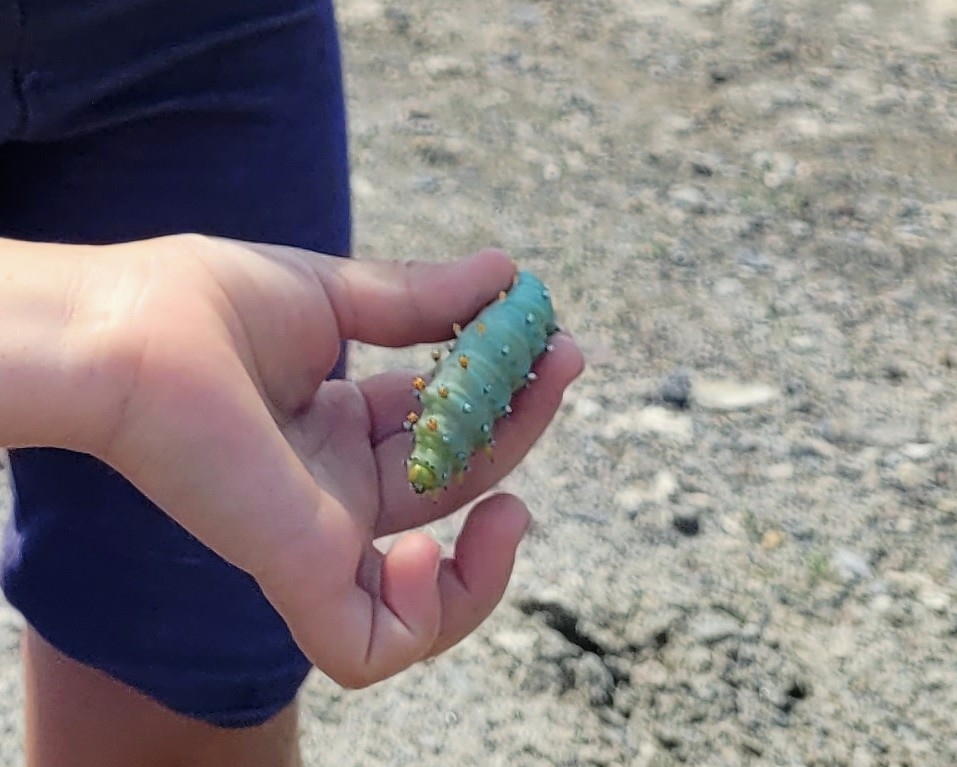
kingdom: Animalia
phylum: Arthropoda
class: Insecta
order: Lepidoptera
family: Saturniidae
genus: Hyalophora
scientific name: Hyalophora gloveri
